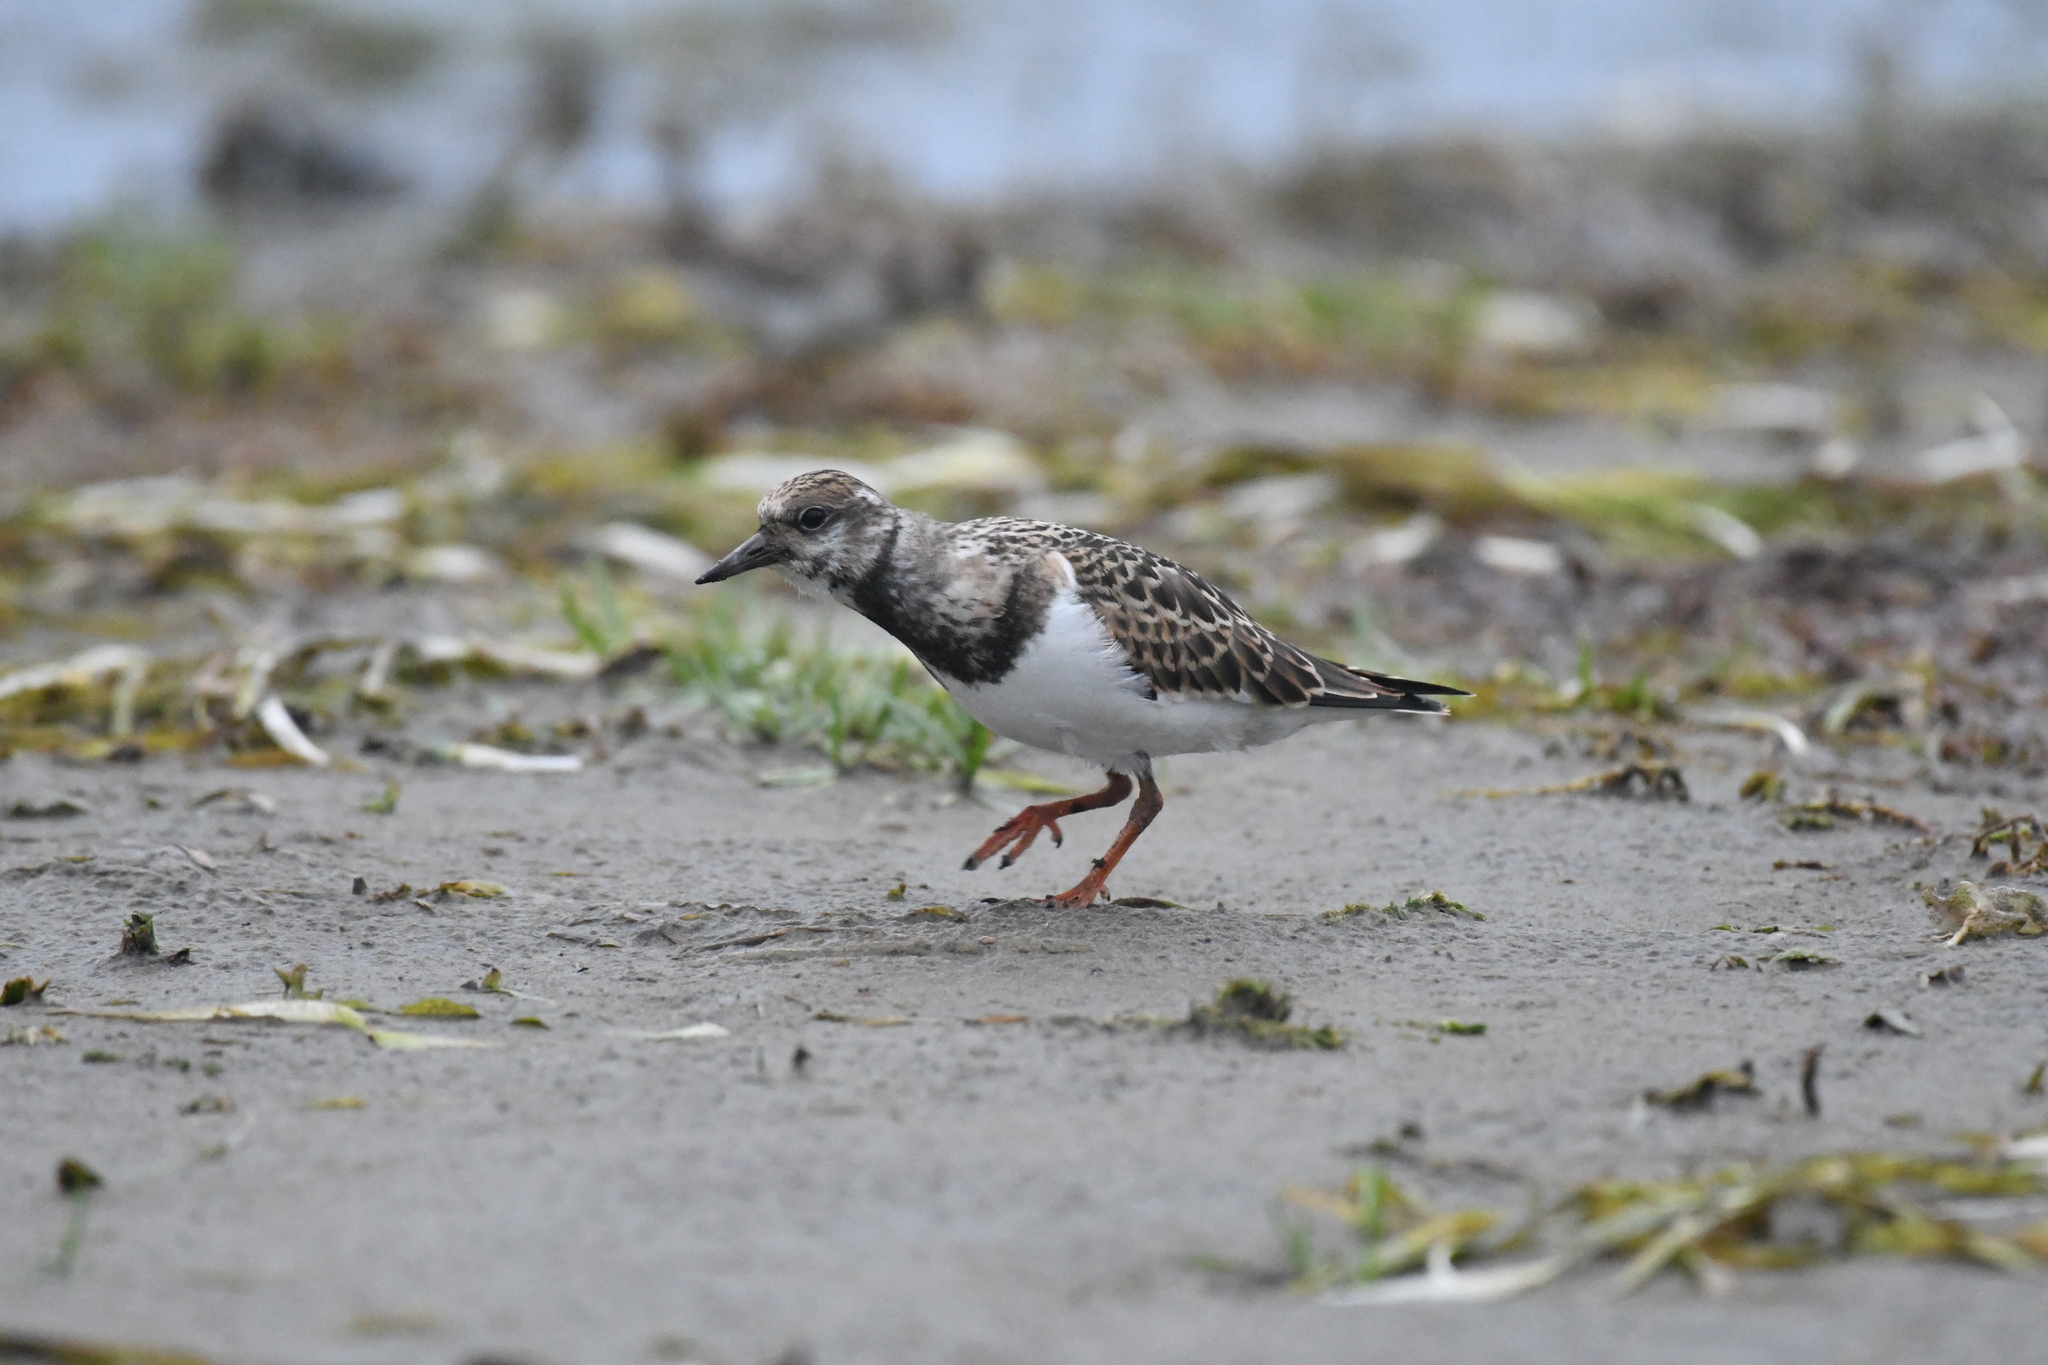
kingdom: Animalia
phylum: Chordata
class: Aves
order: Charadriiformes
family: Scolopacidae
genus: Arenaria
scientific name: Arenaria interpres
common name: Ruddy turnstone
